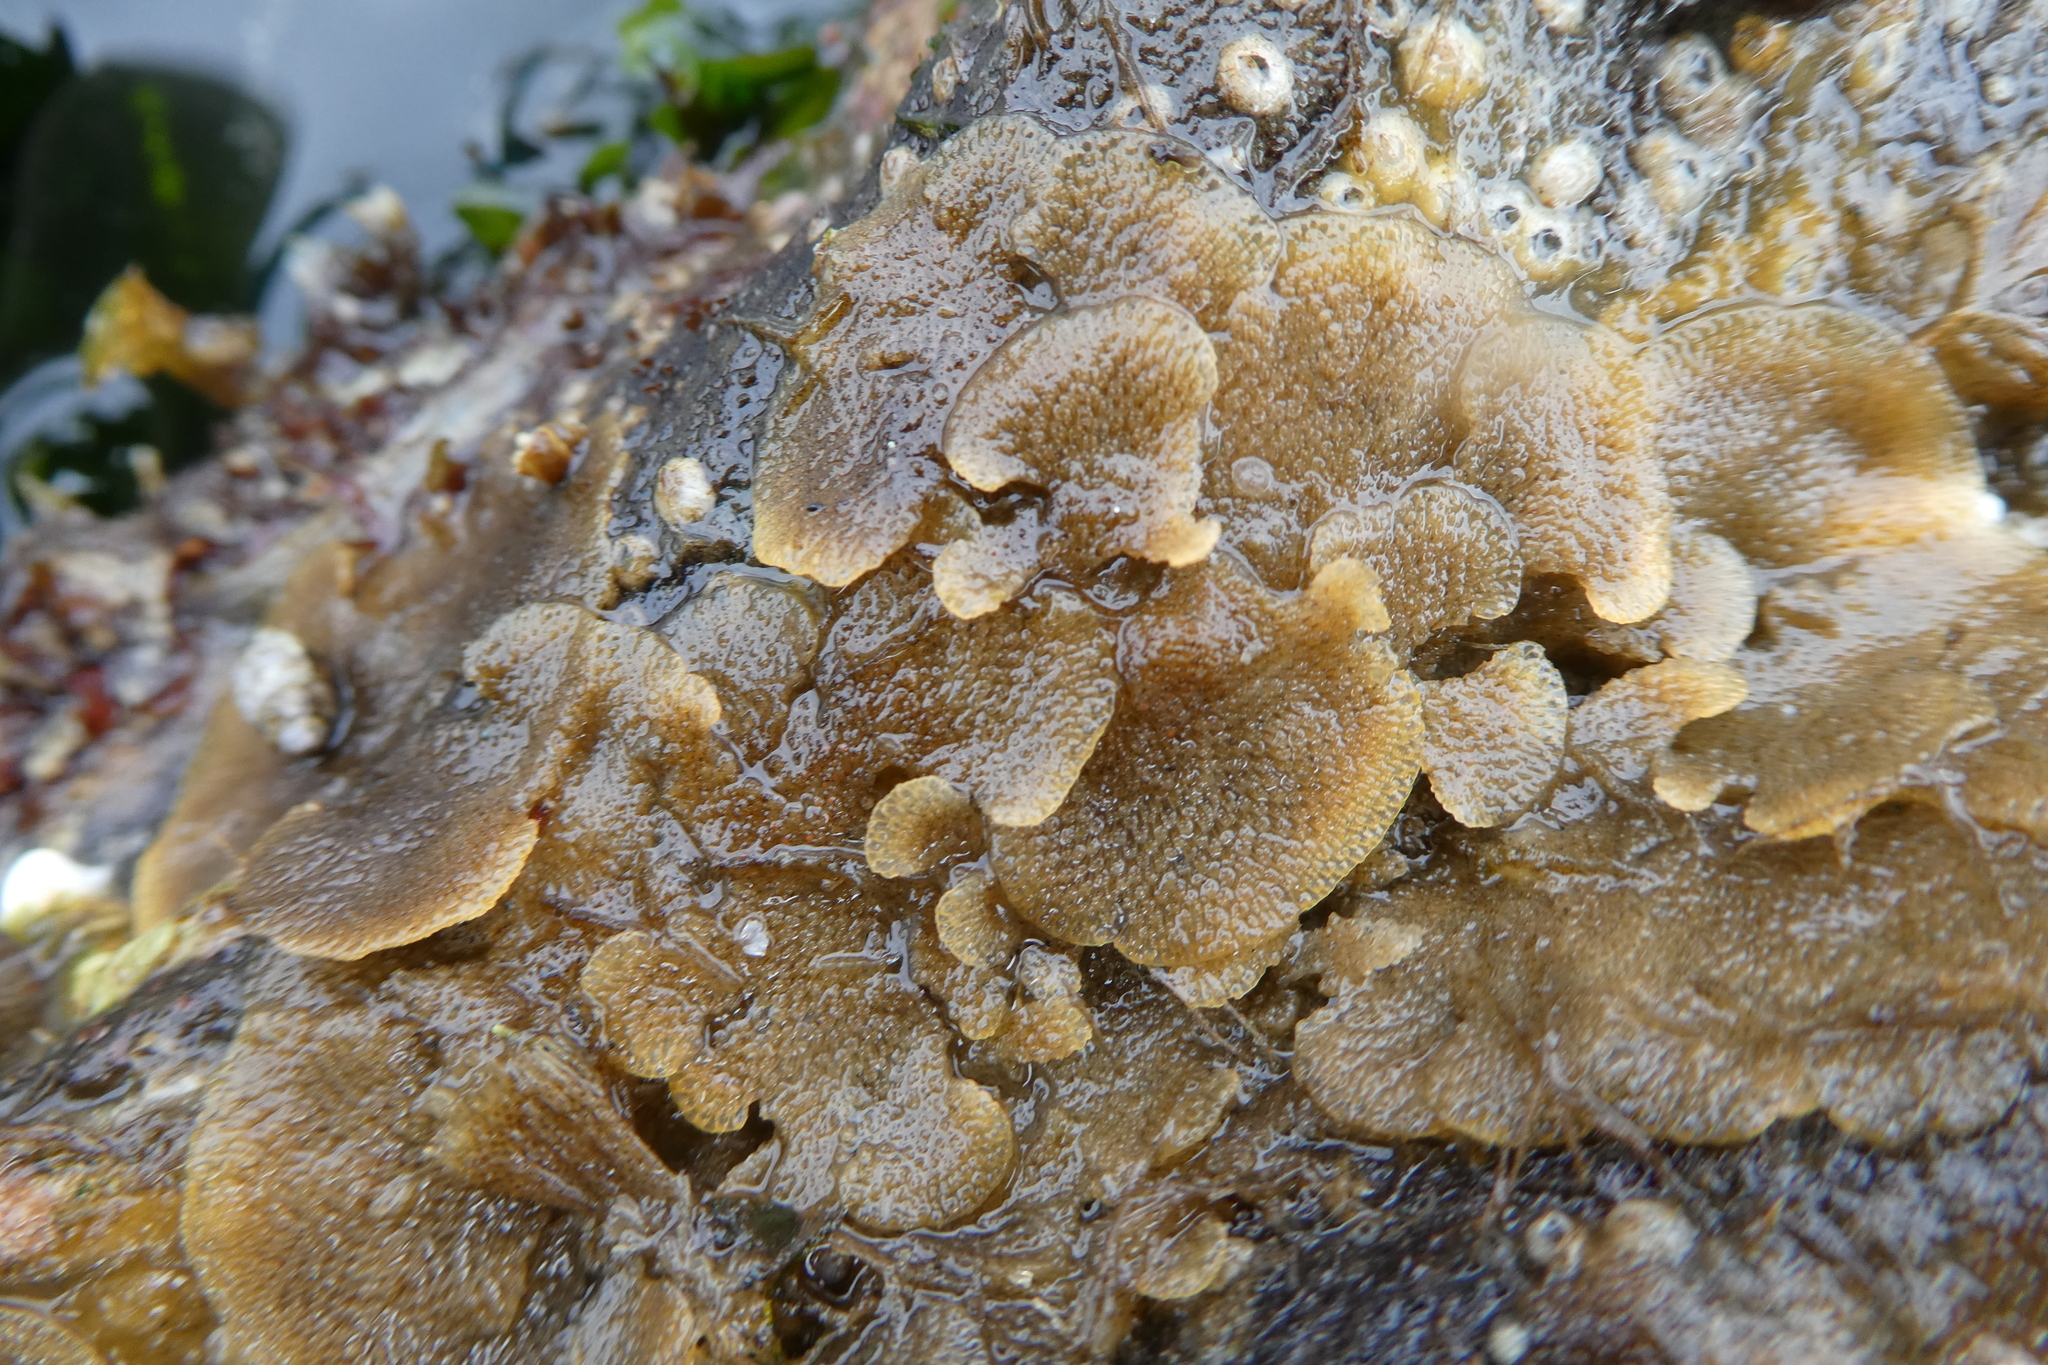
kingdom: Animalia
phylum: Bryozoa
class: Gymnolaemata
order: Cheilostomatida
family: Bugulidae
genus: Dendrobeania
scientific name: Dendrobeania lichenoides
